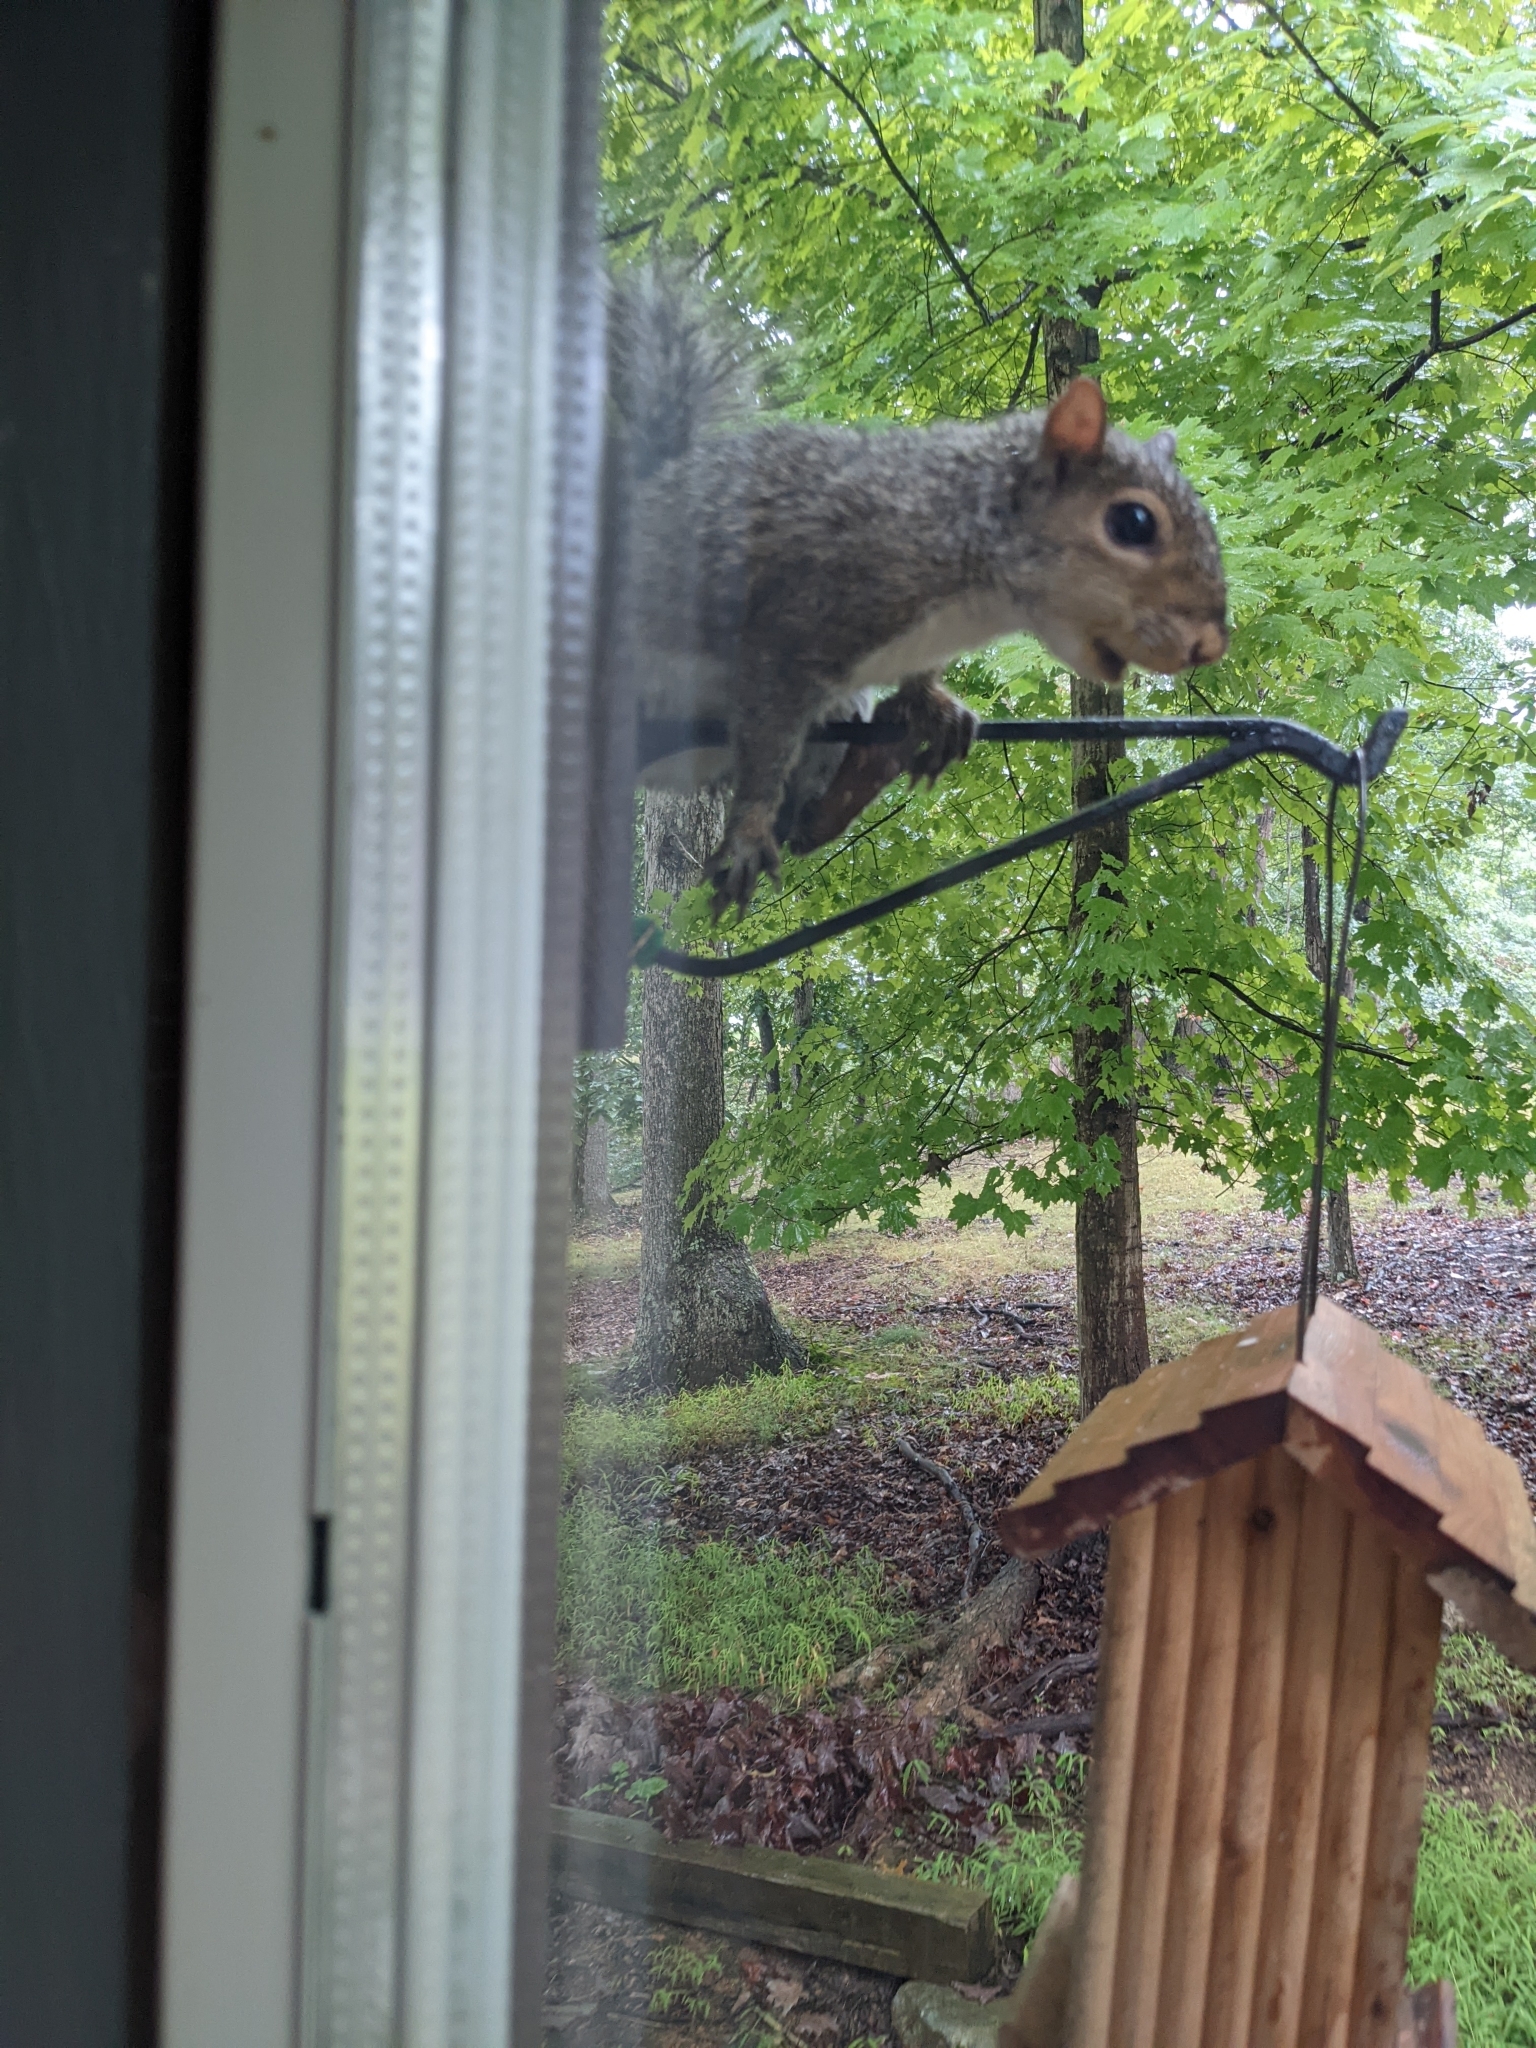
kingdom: Animalia
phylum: Chordata
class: Mammalia
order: Rodentia
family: Sciuridae
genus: Sciurus
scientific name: Sciurus carolinensis
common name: Eastern gray squirrel
